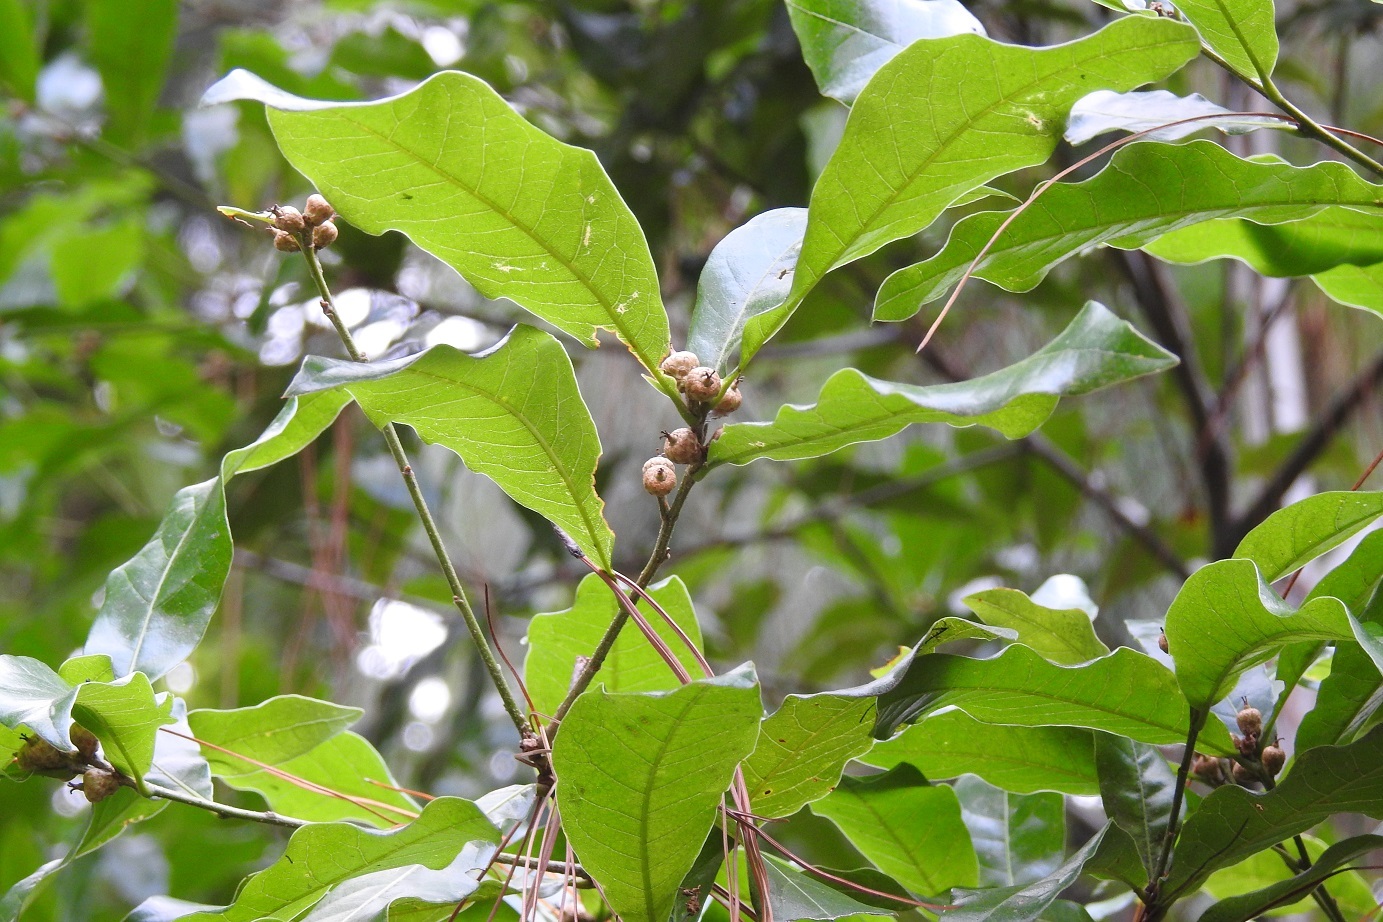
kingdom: Plantae
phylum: Tracheophyta
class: Magnoliopsida
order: Fagales
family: Fagaceae
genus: Quercus
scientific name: Quercus sapotifolia
